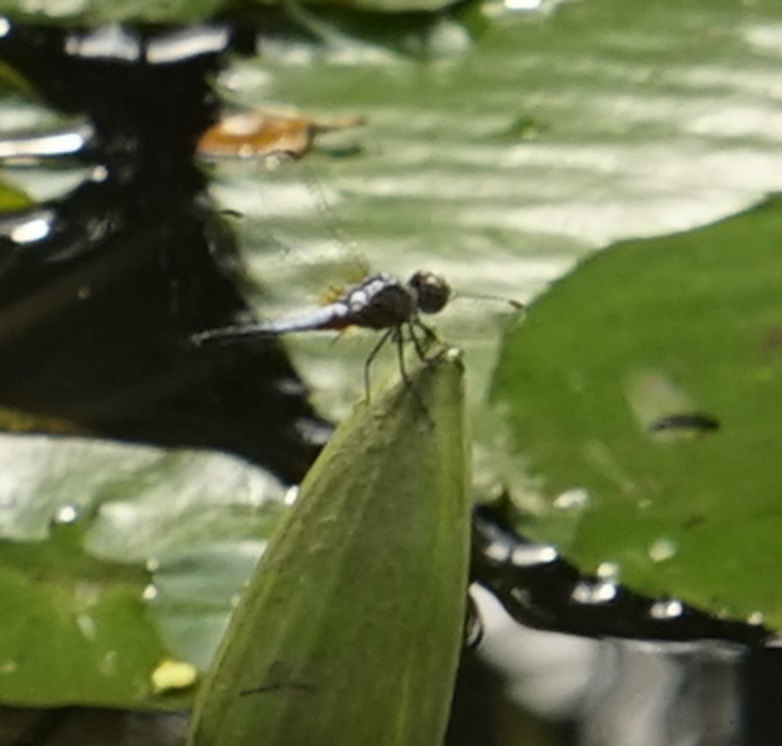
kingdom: Animalia
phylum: Arthropoda
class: Insecta
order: Odonata
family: Libellulidae
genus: Brachydiplax
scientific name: Brachydiplax chalybea
